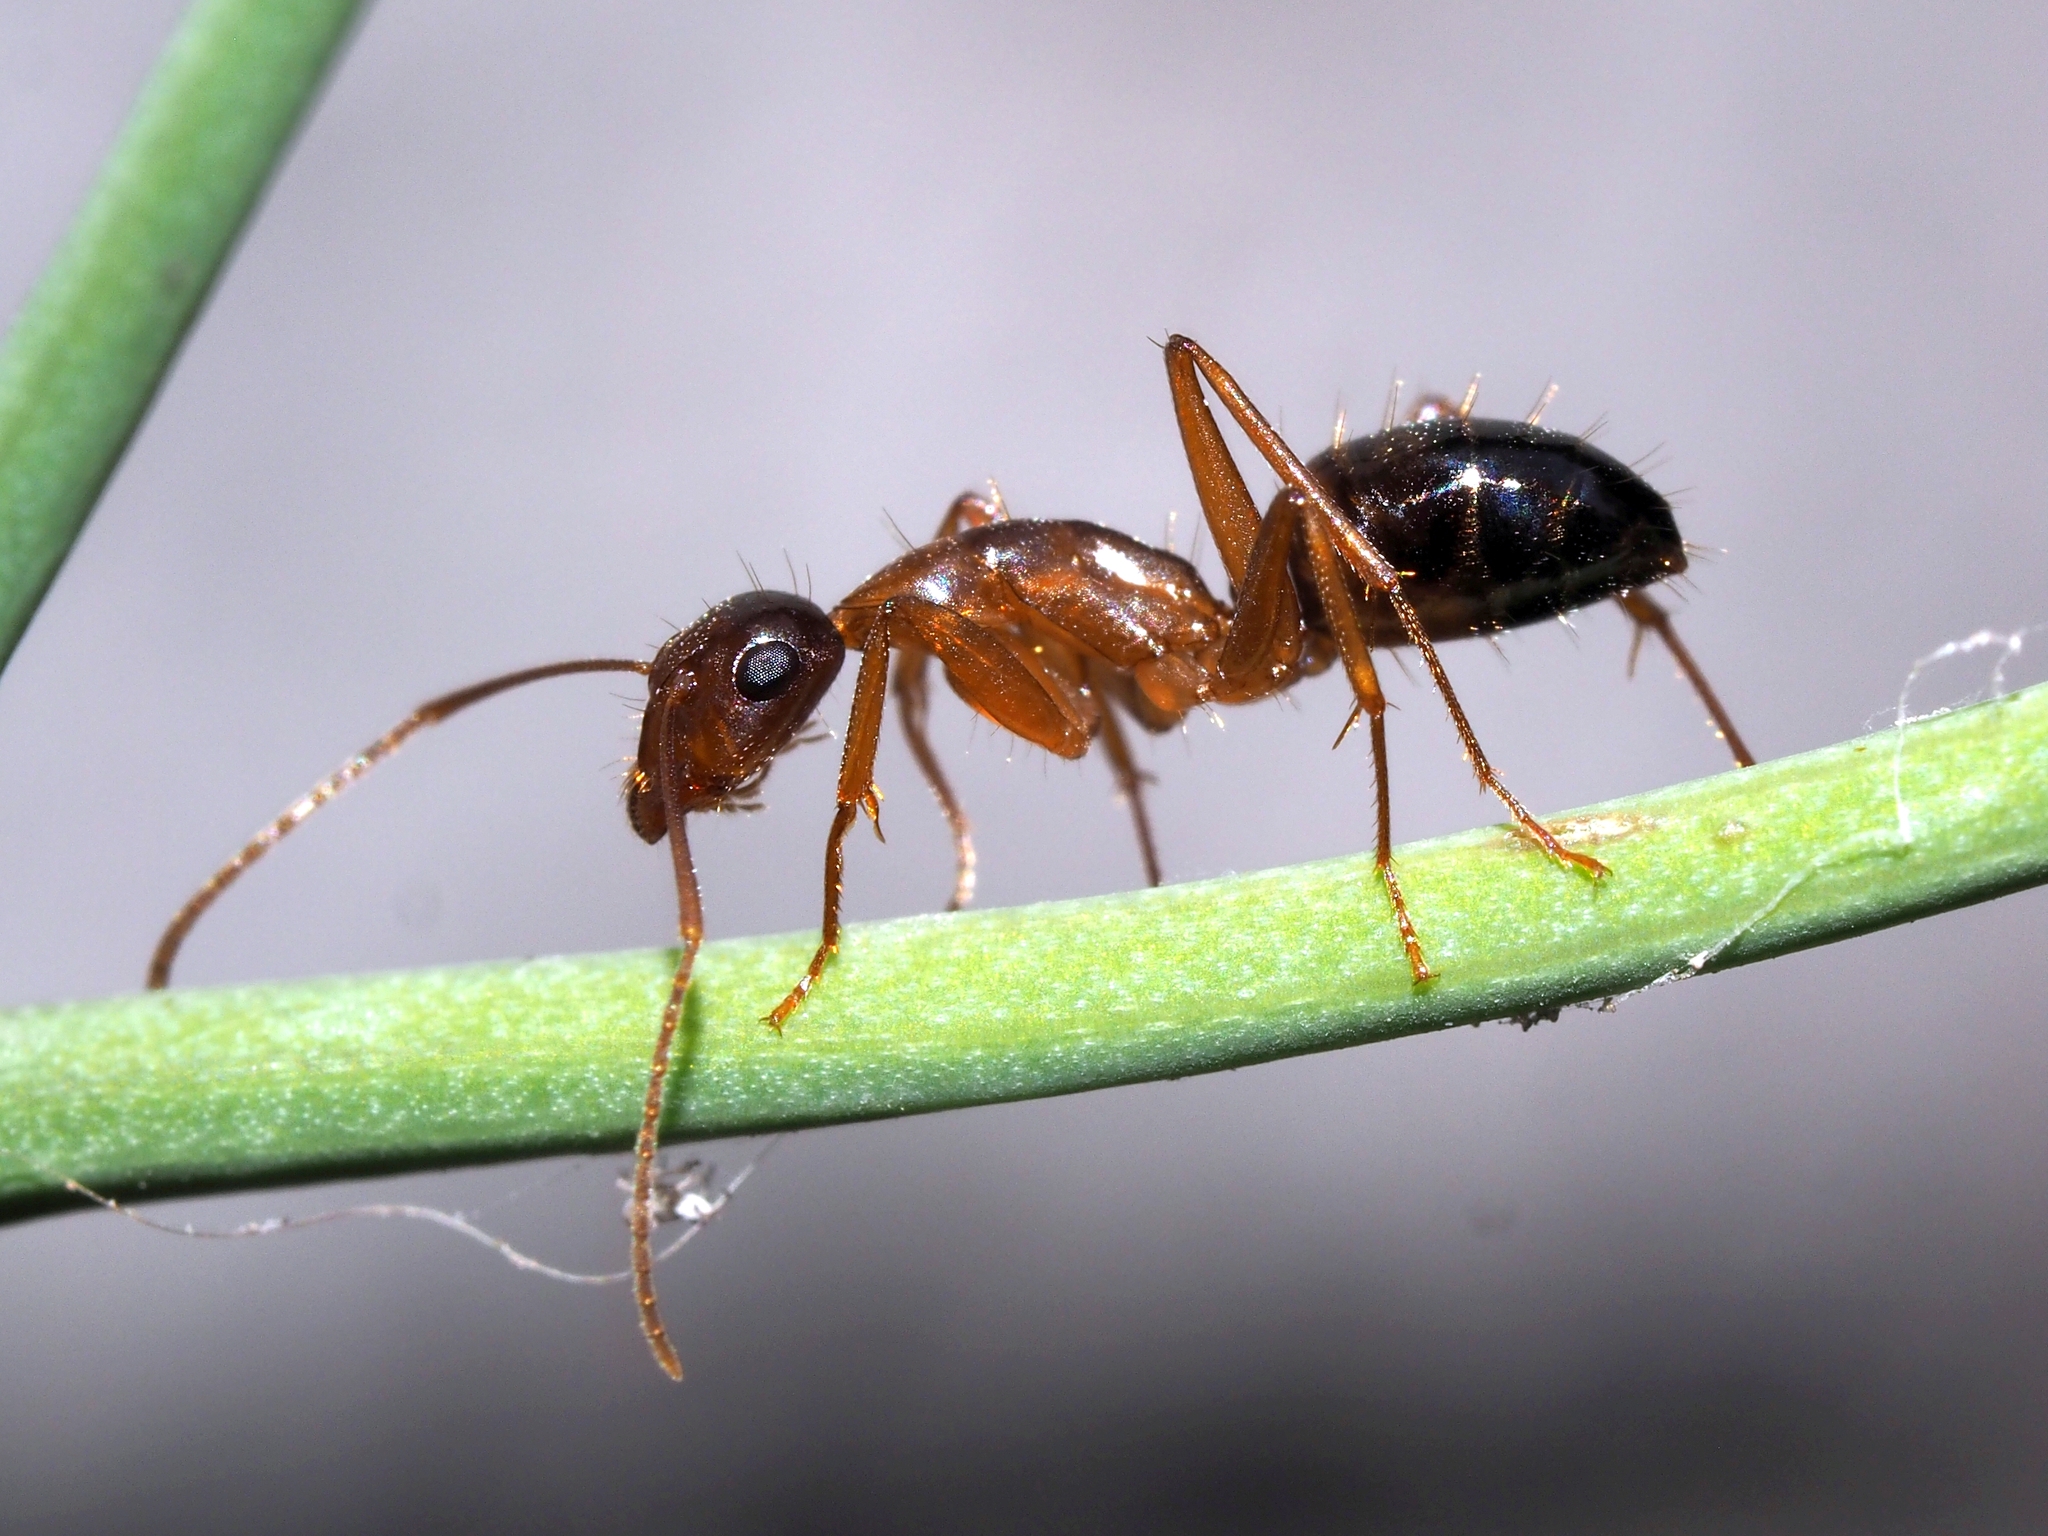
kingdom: Animalia
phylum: Arthropoda
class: Insecta
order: Hymenoptera
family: Formicidae
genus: Camponotus
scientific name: Camponotus nylanderi
